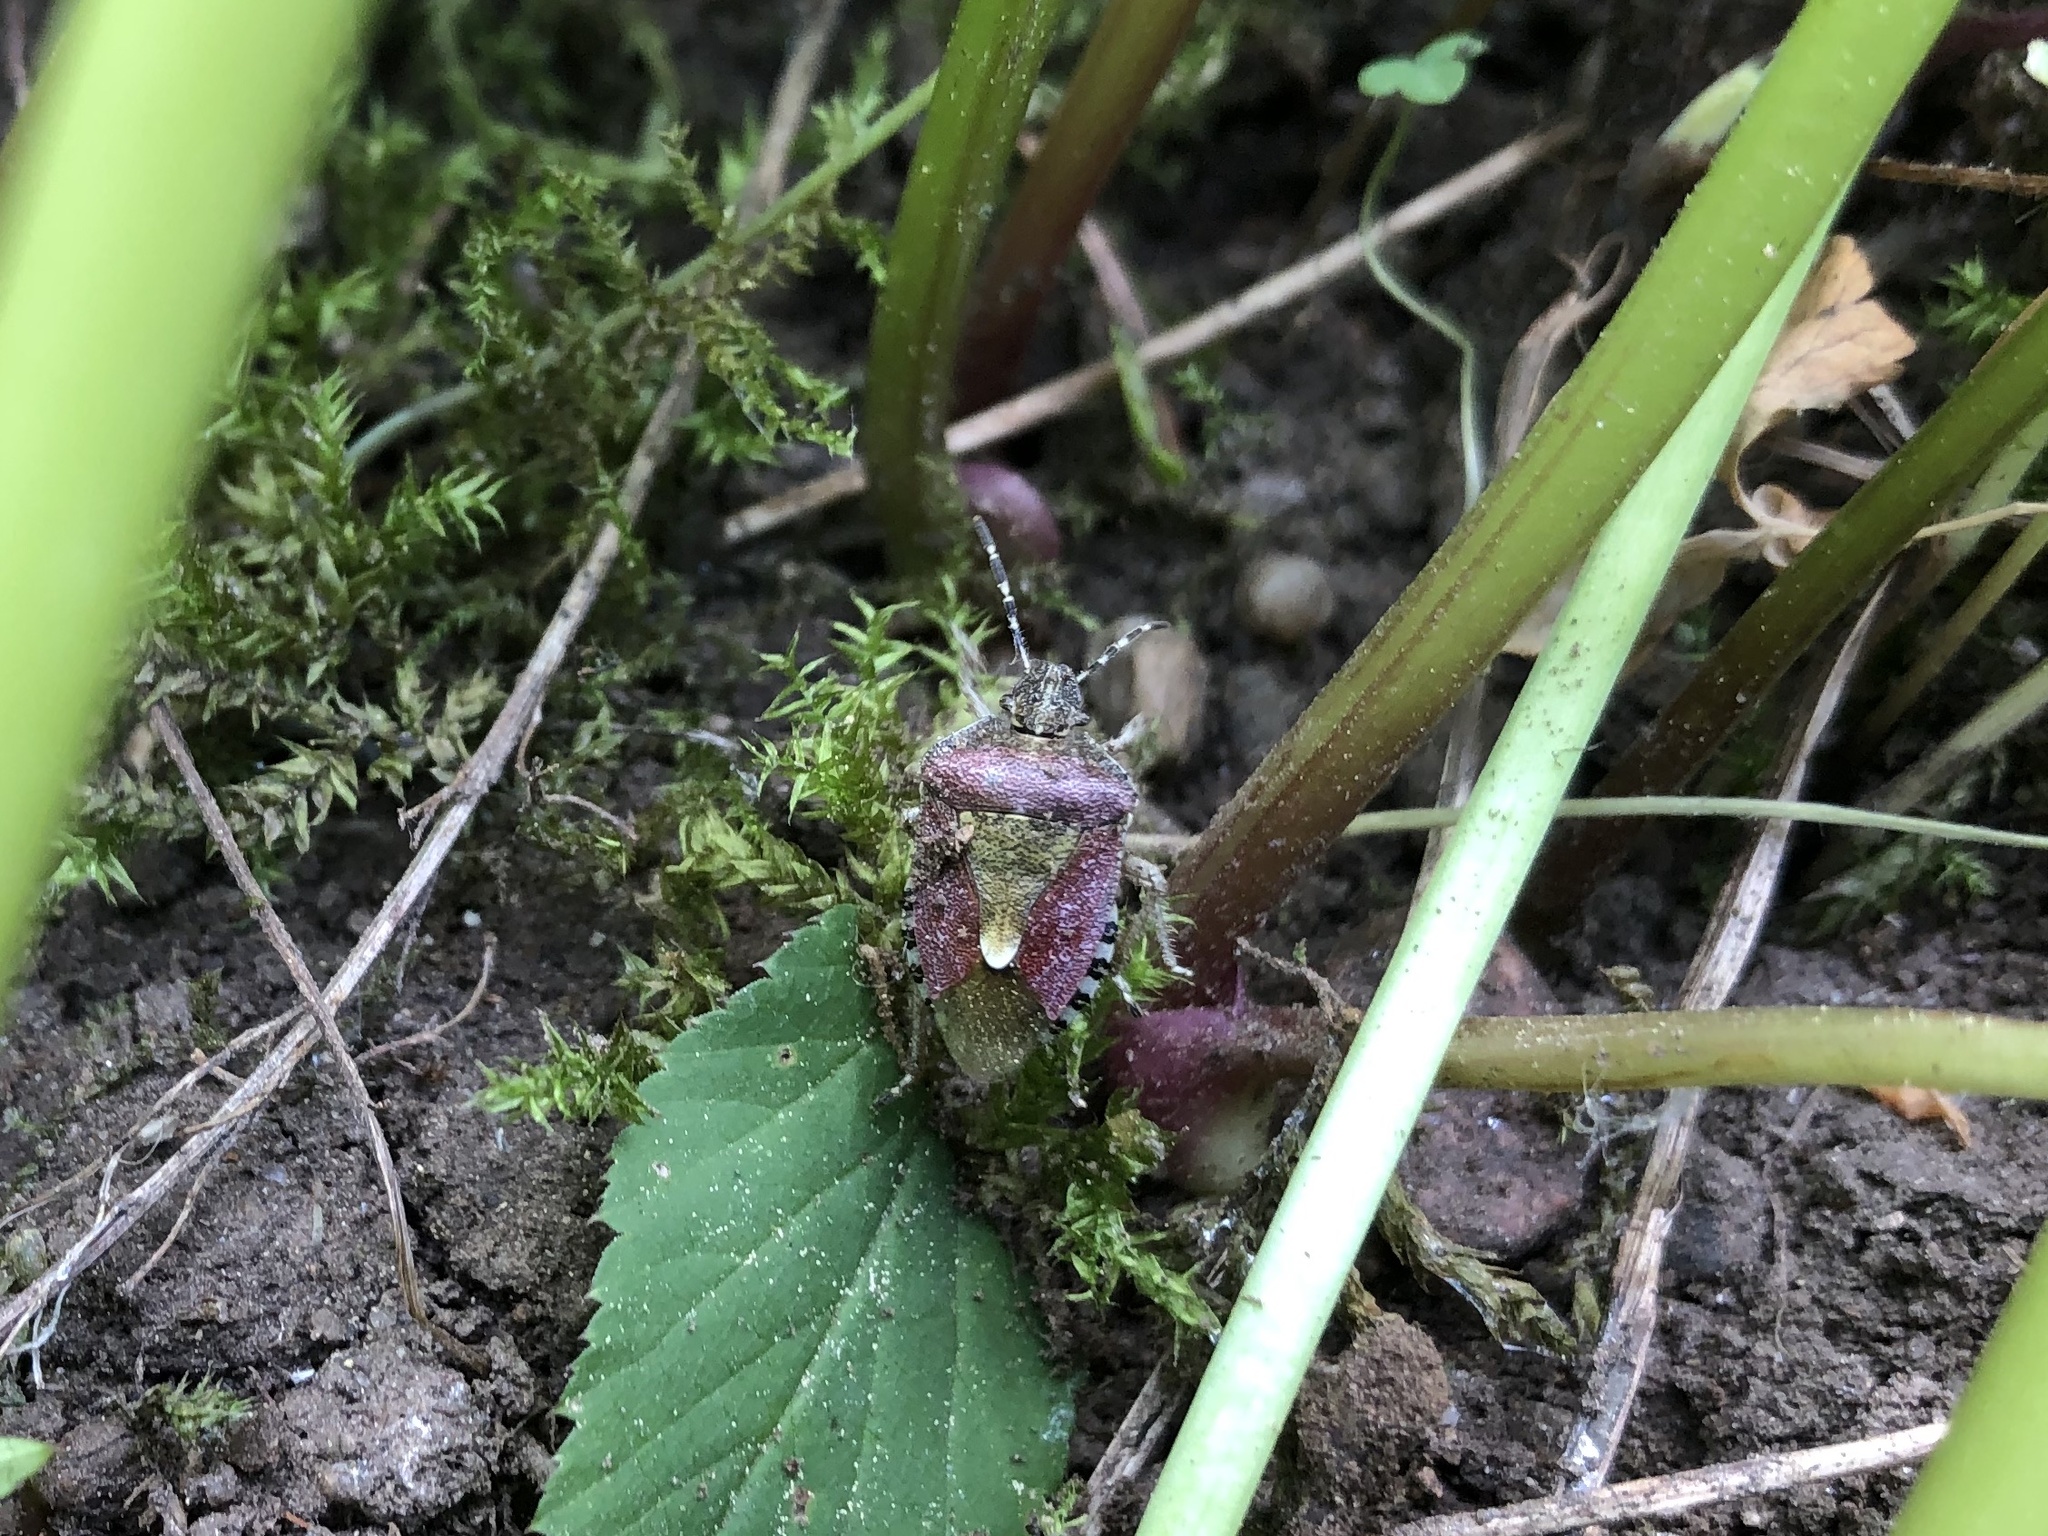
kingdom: Animalia
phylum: Arthropoda
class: Insecta
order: Hemiptera
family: Pentatomidae
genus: Dolycoris
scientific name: Dolycoris baccarum
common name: Sloe bug
